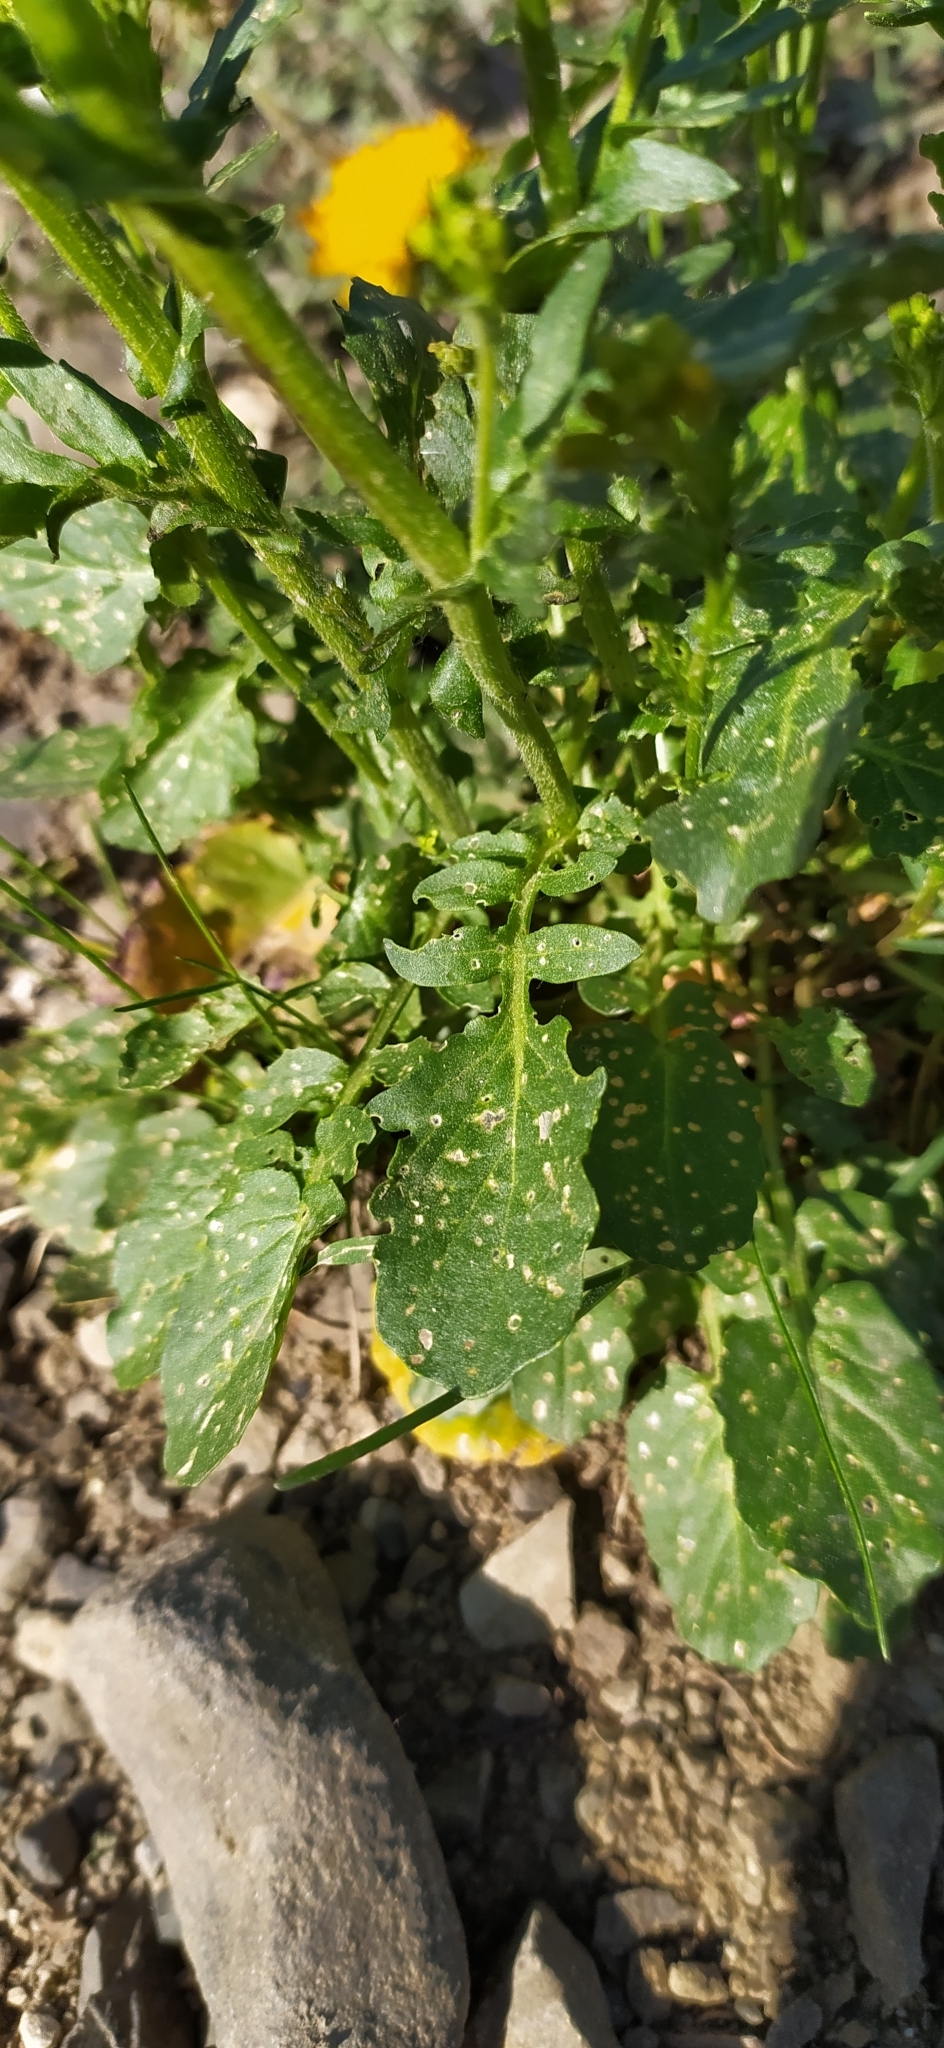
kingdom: Plantae
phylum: Tracheophyta
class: Magnoliopsida
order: Brassicales
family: Brassicaceae
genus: Barbarea
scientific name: Barbarea vulgaris
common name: Cressy-greens
